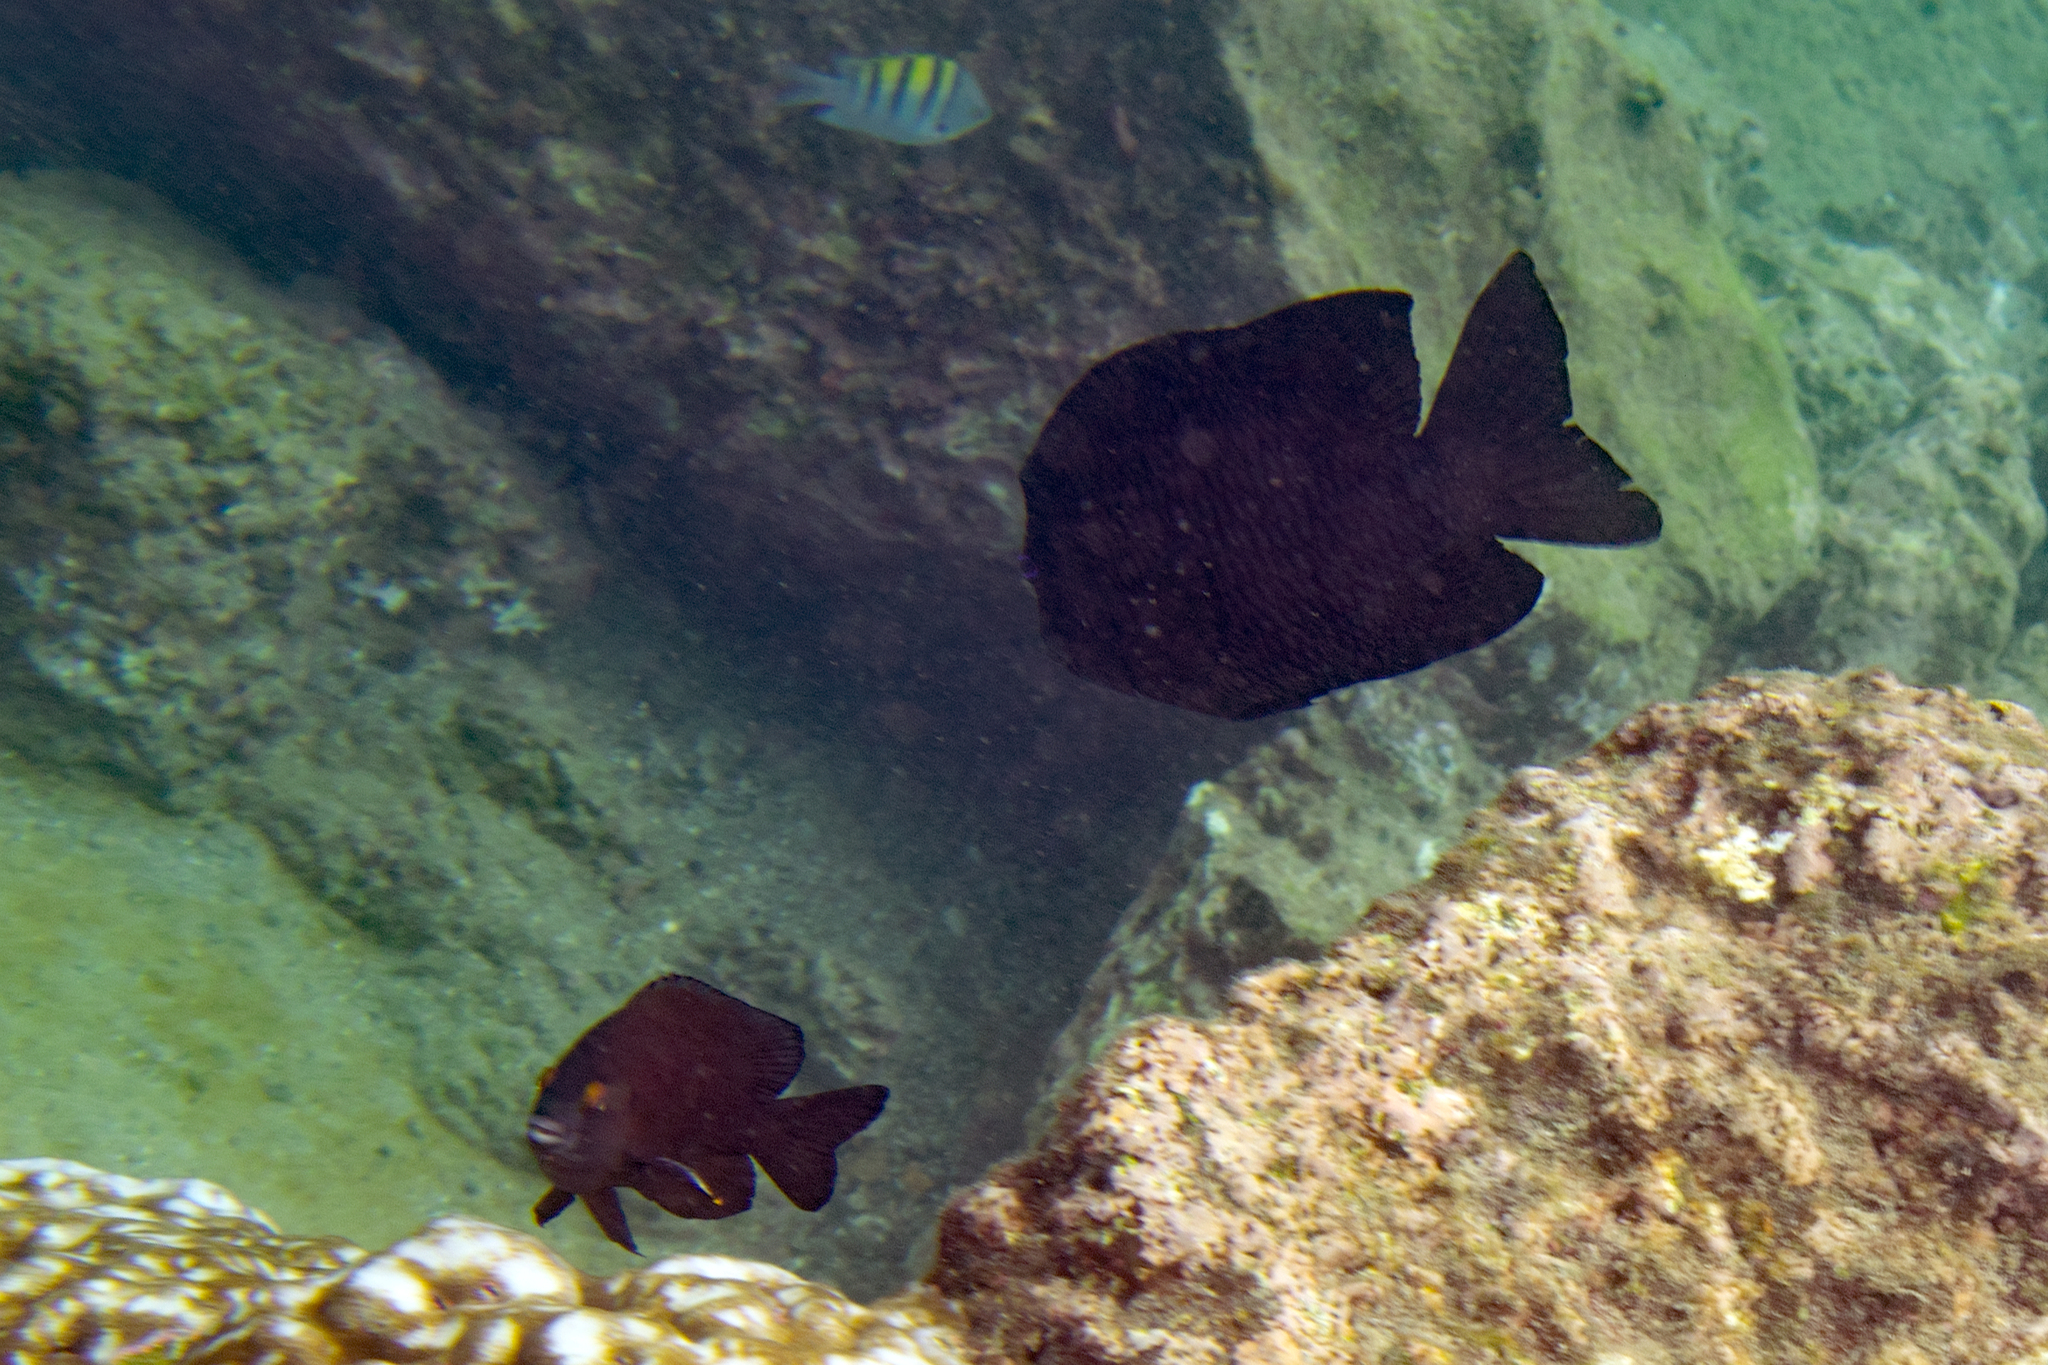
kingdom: Animalia
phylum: Chordata
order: Perciformes
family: Pomacentridae
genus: Stegastes
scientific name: Stegastes beebei
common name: Galapagos ringtail damselfish
